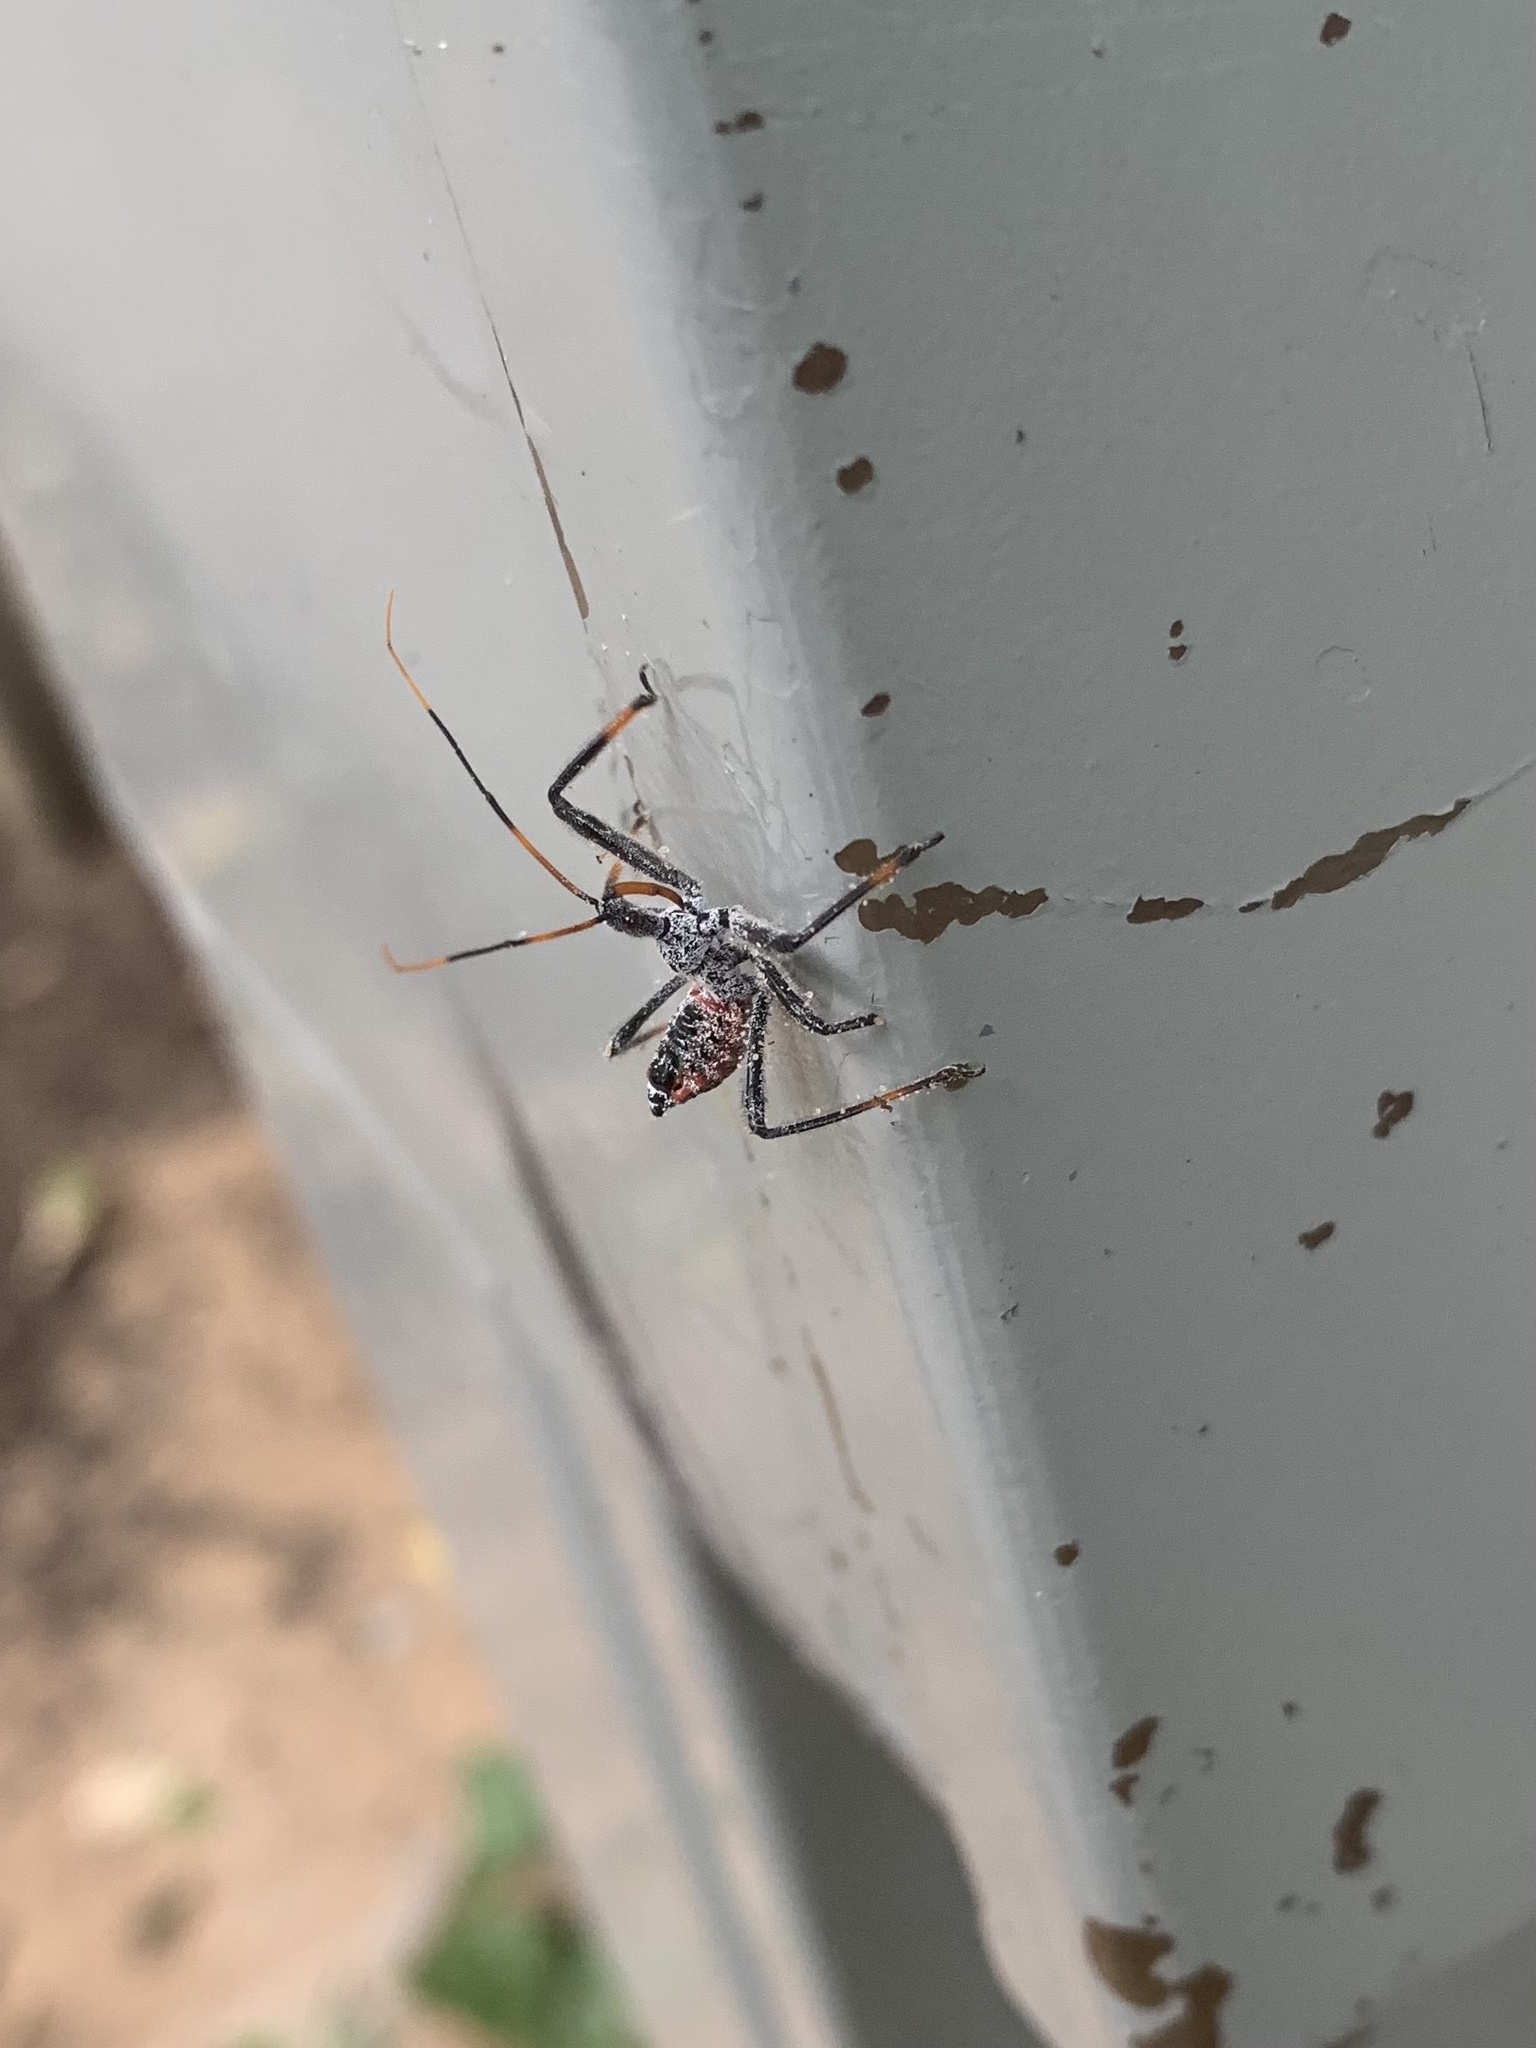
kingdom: Animalia
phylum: Arthropoda
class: Insecta
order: Hemiptera
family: Reduviidae
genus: Arilus
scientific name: Arilus cristatus
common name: North american wheel bug
